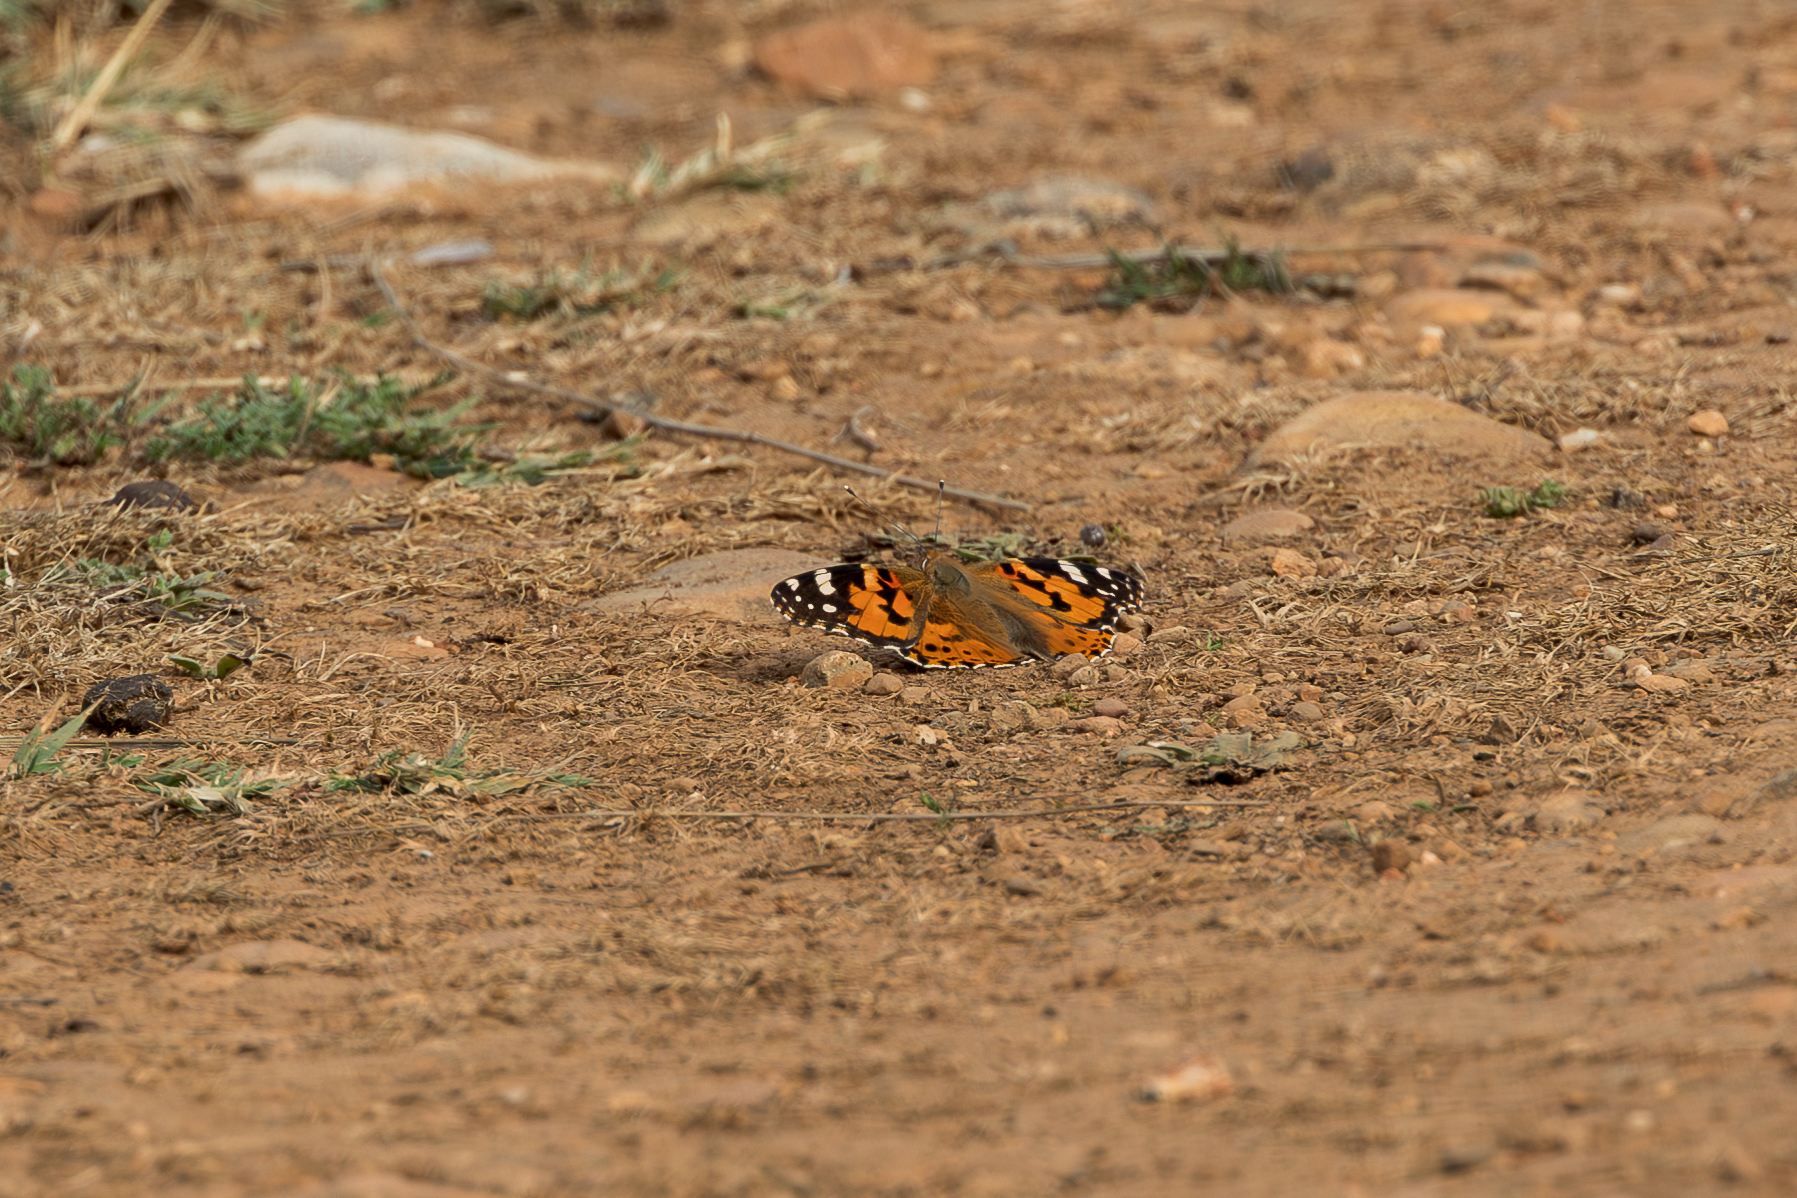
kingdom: Animalia
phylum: Arthropoda
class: Insecta
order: Lepidoptera
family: Nymphalidae
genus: Vanessa
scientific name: Vanessa cardui
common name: Painted lady
